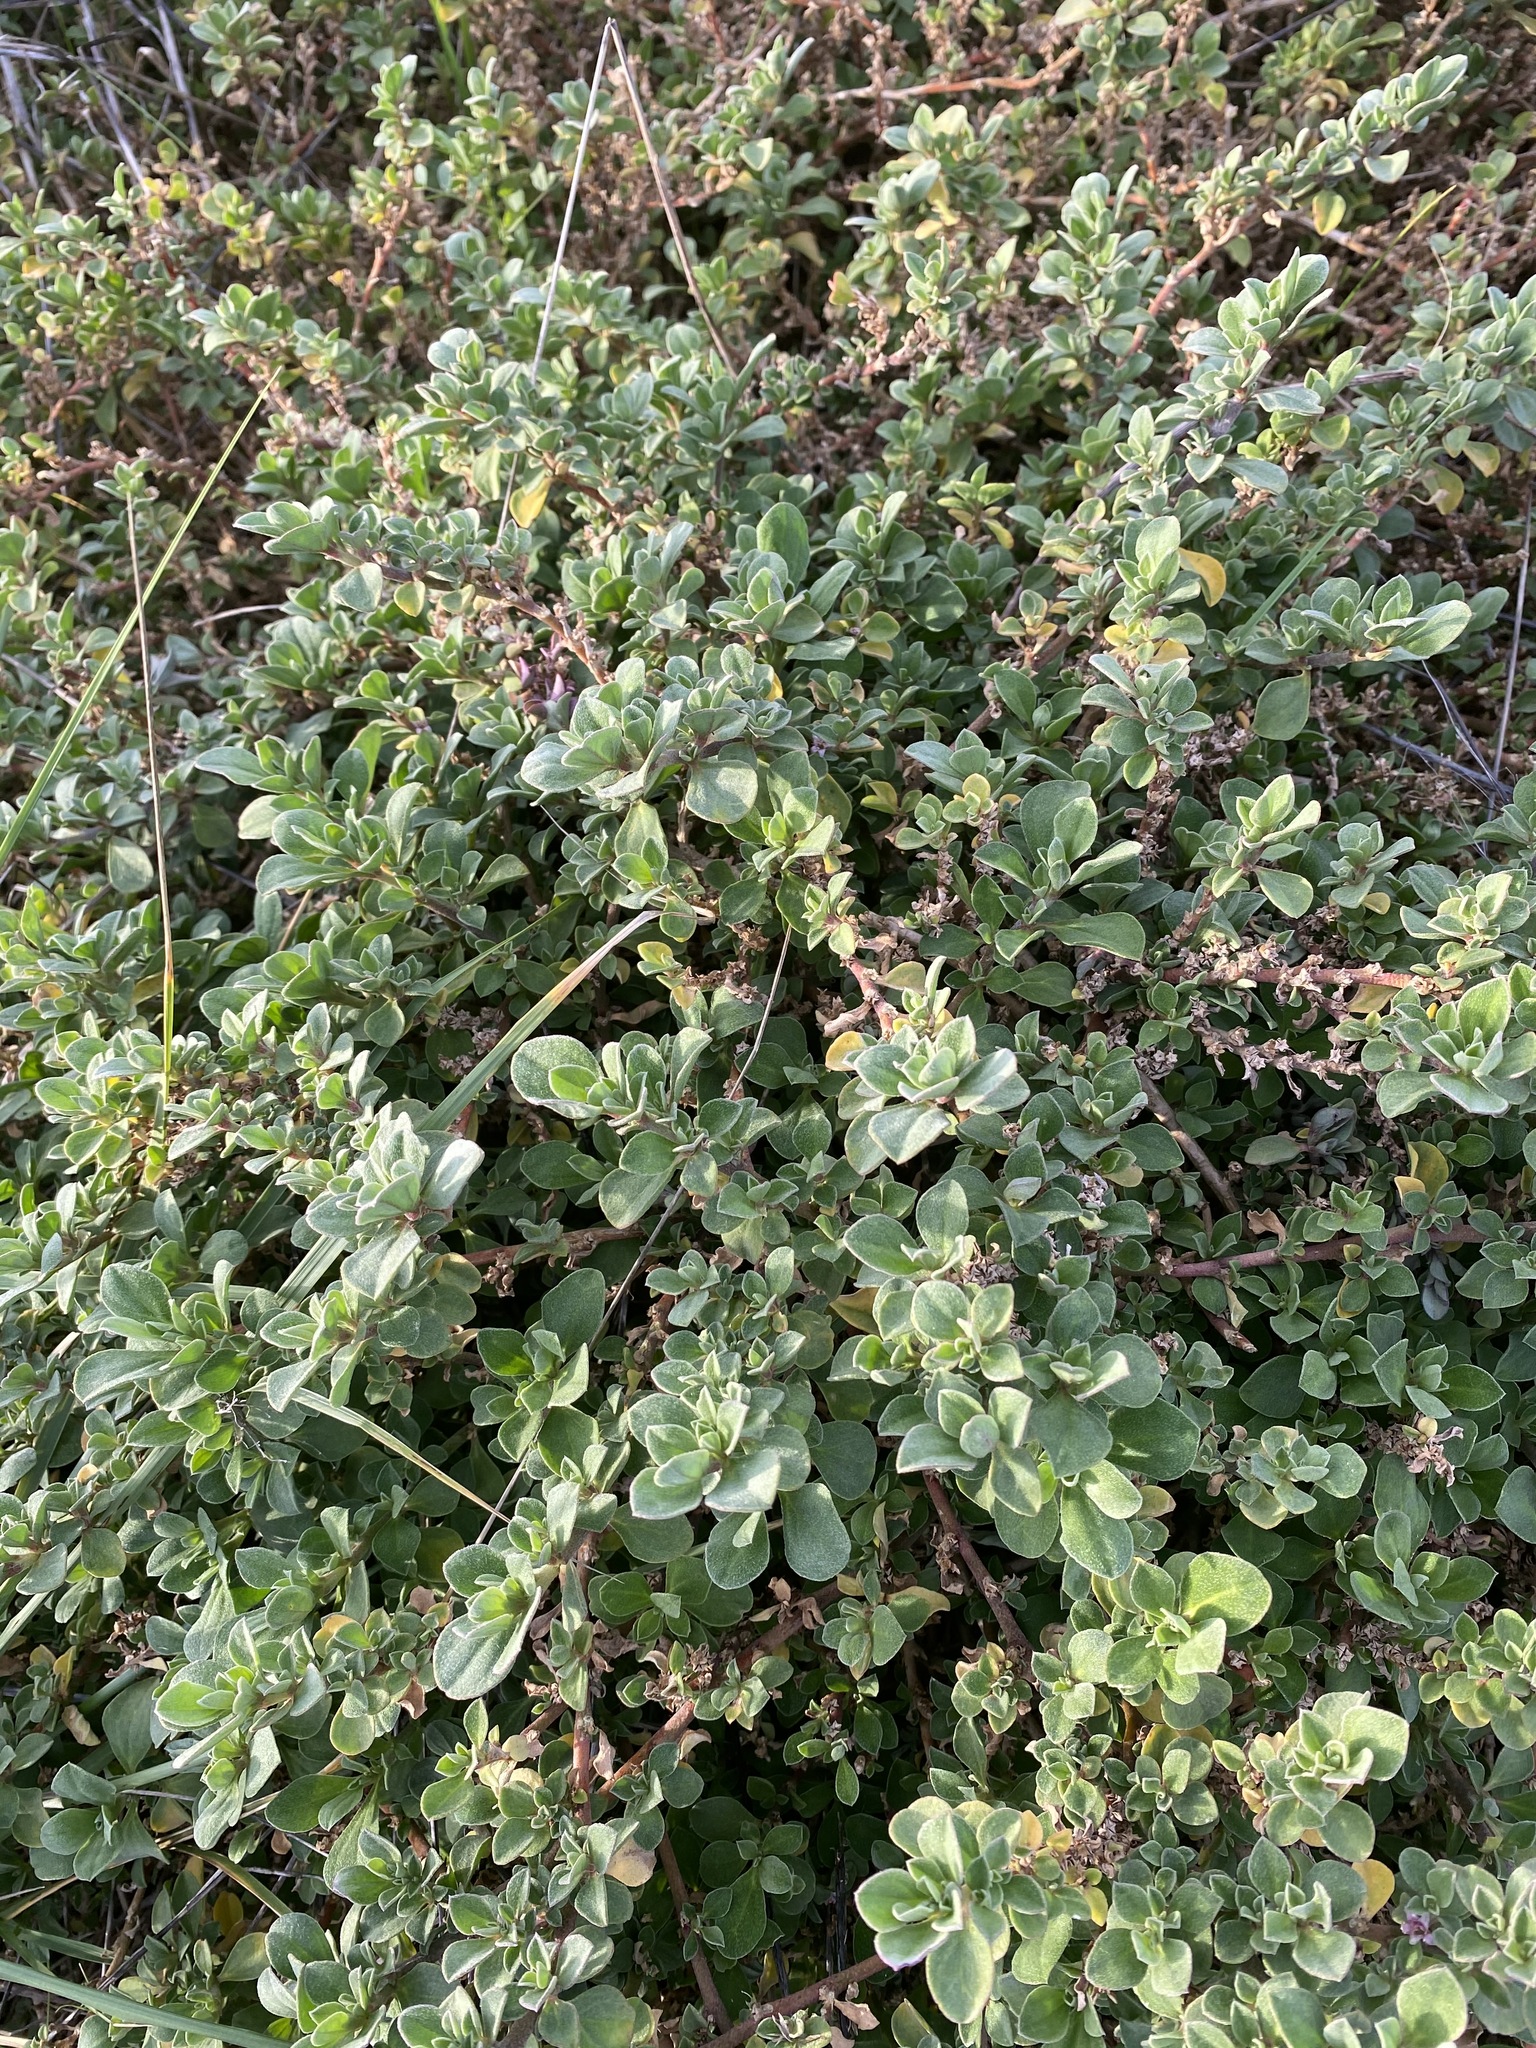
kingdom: Plantae
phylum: Tracheophyta
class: Magnoliopsida
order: Caryophyllales
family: Aizoaceae
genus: Aizoon
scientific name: Aizoon pubescens
